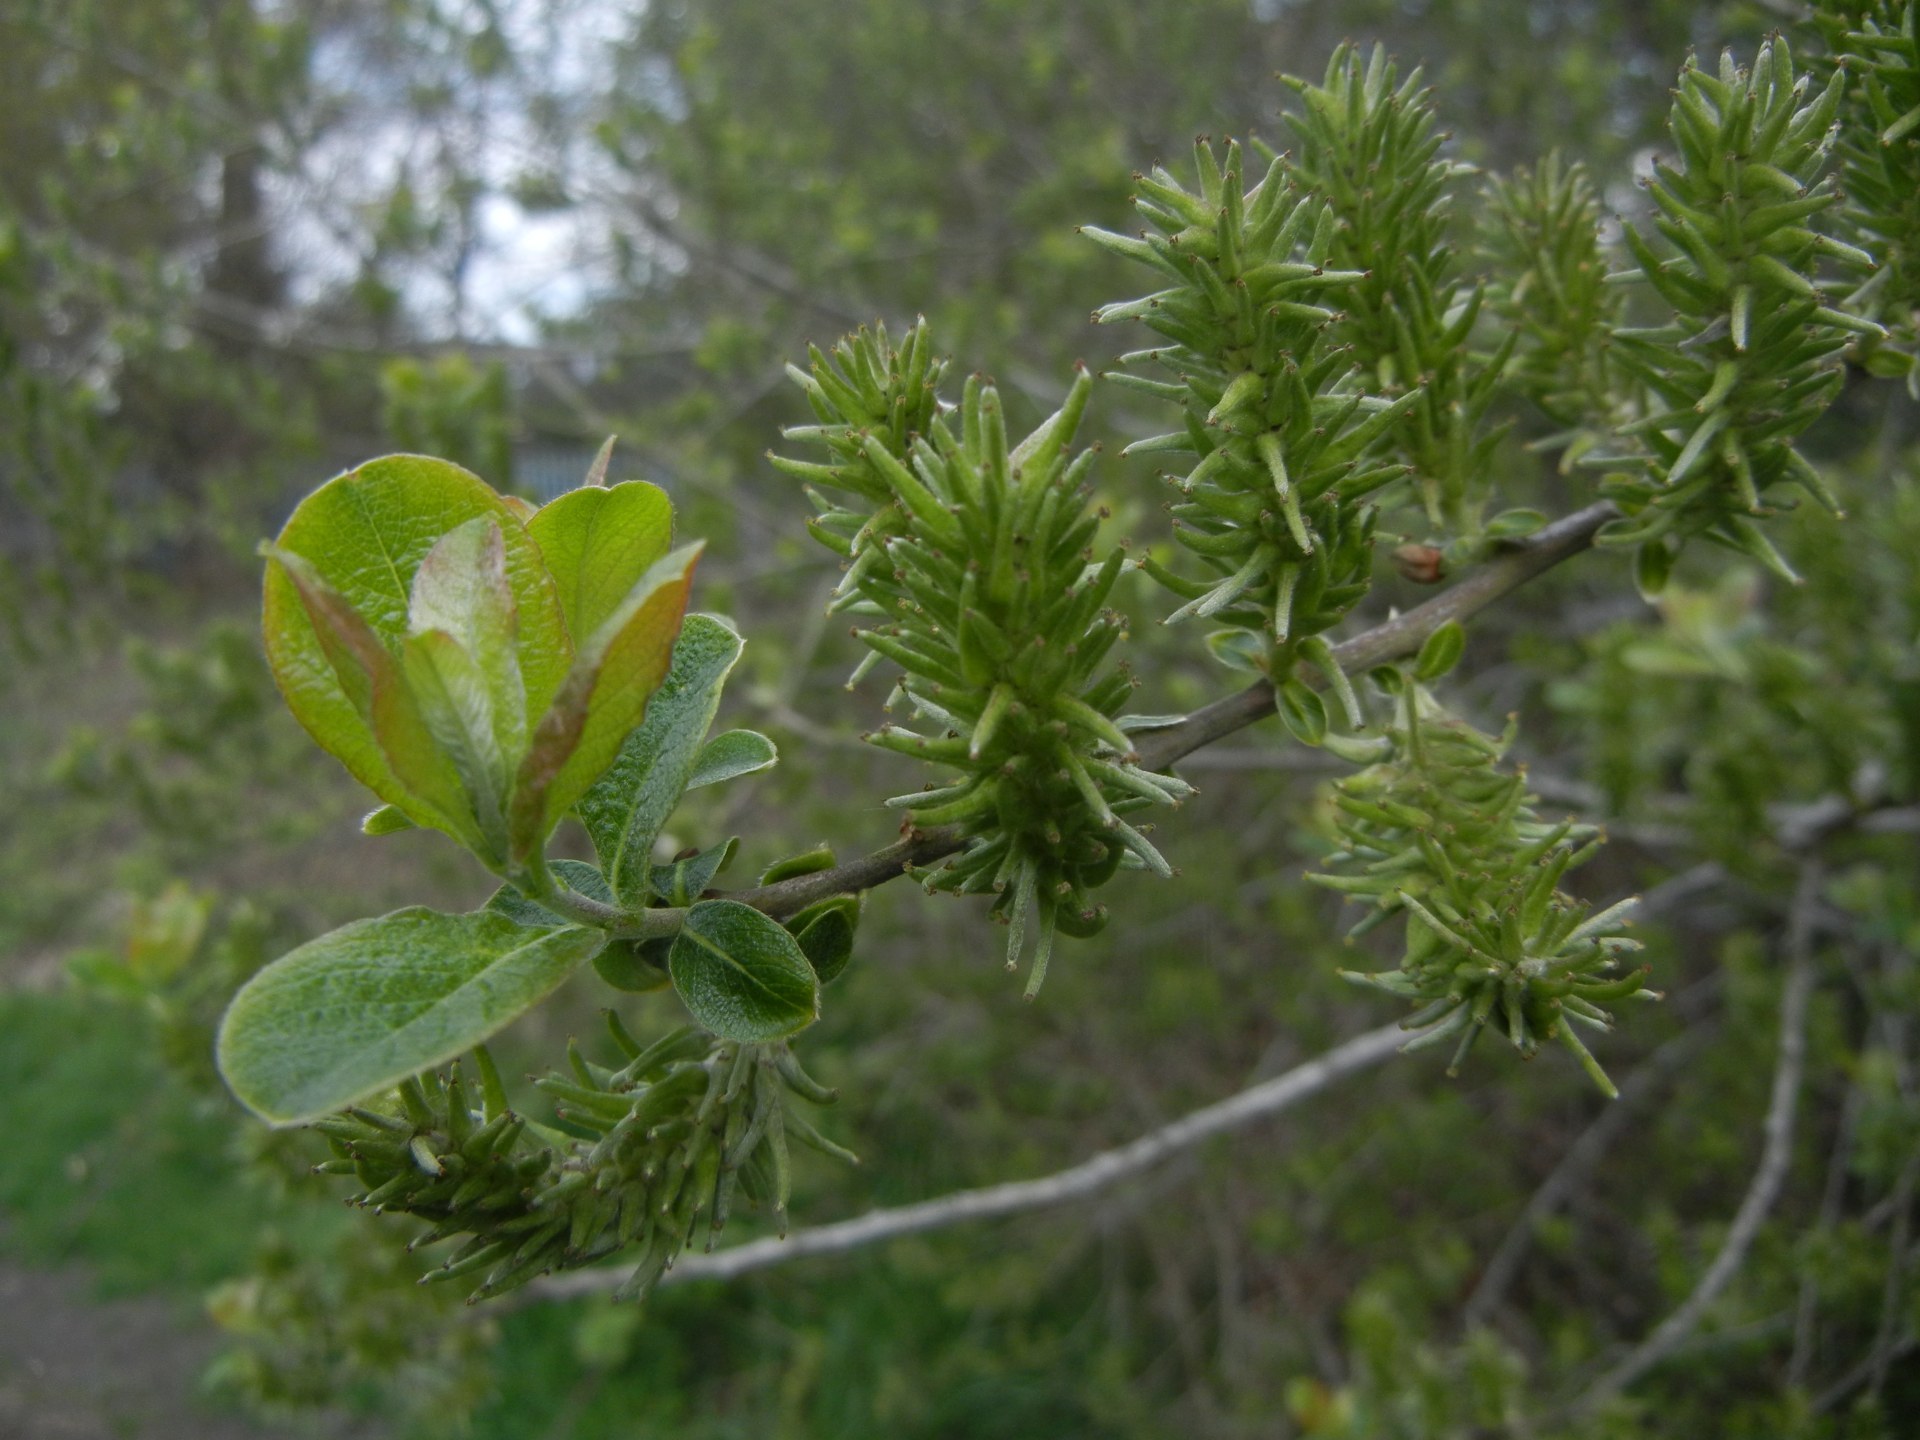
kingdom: Plantae
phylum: Tracheophyta
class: Magnoliopsida
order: Malpighiales
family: Salicaceae
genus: Salix
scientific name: Salix caprea
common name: Goat willow
